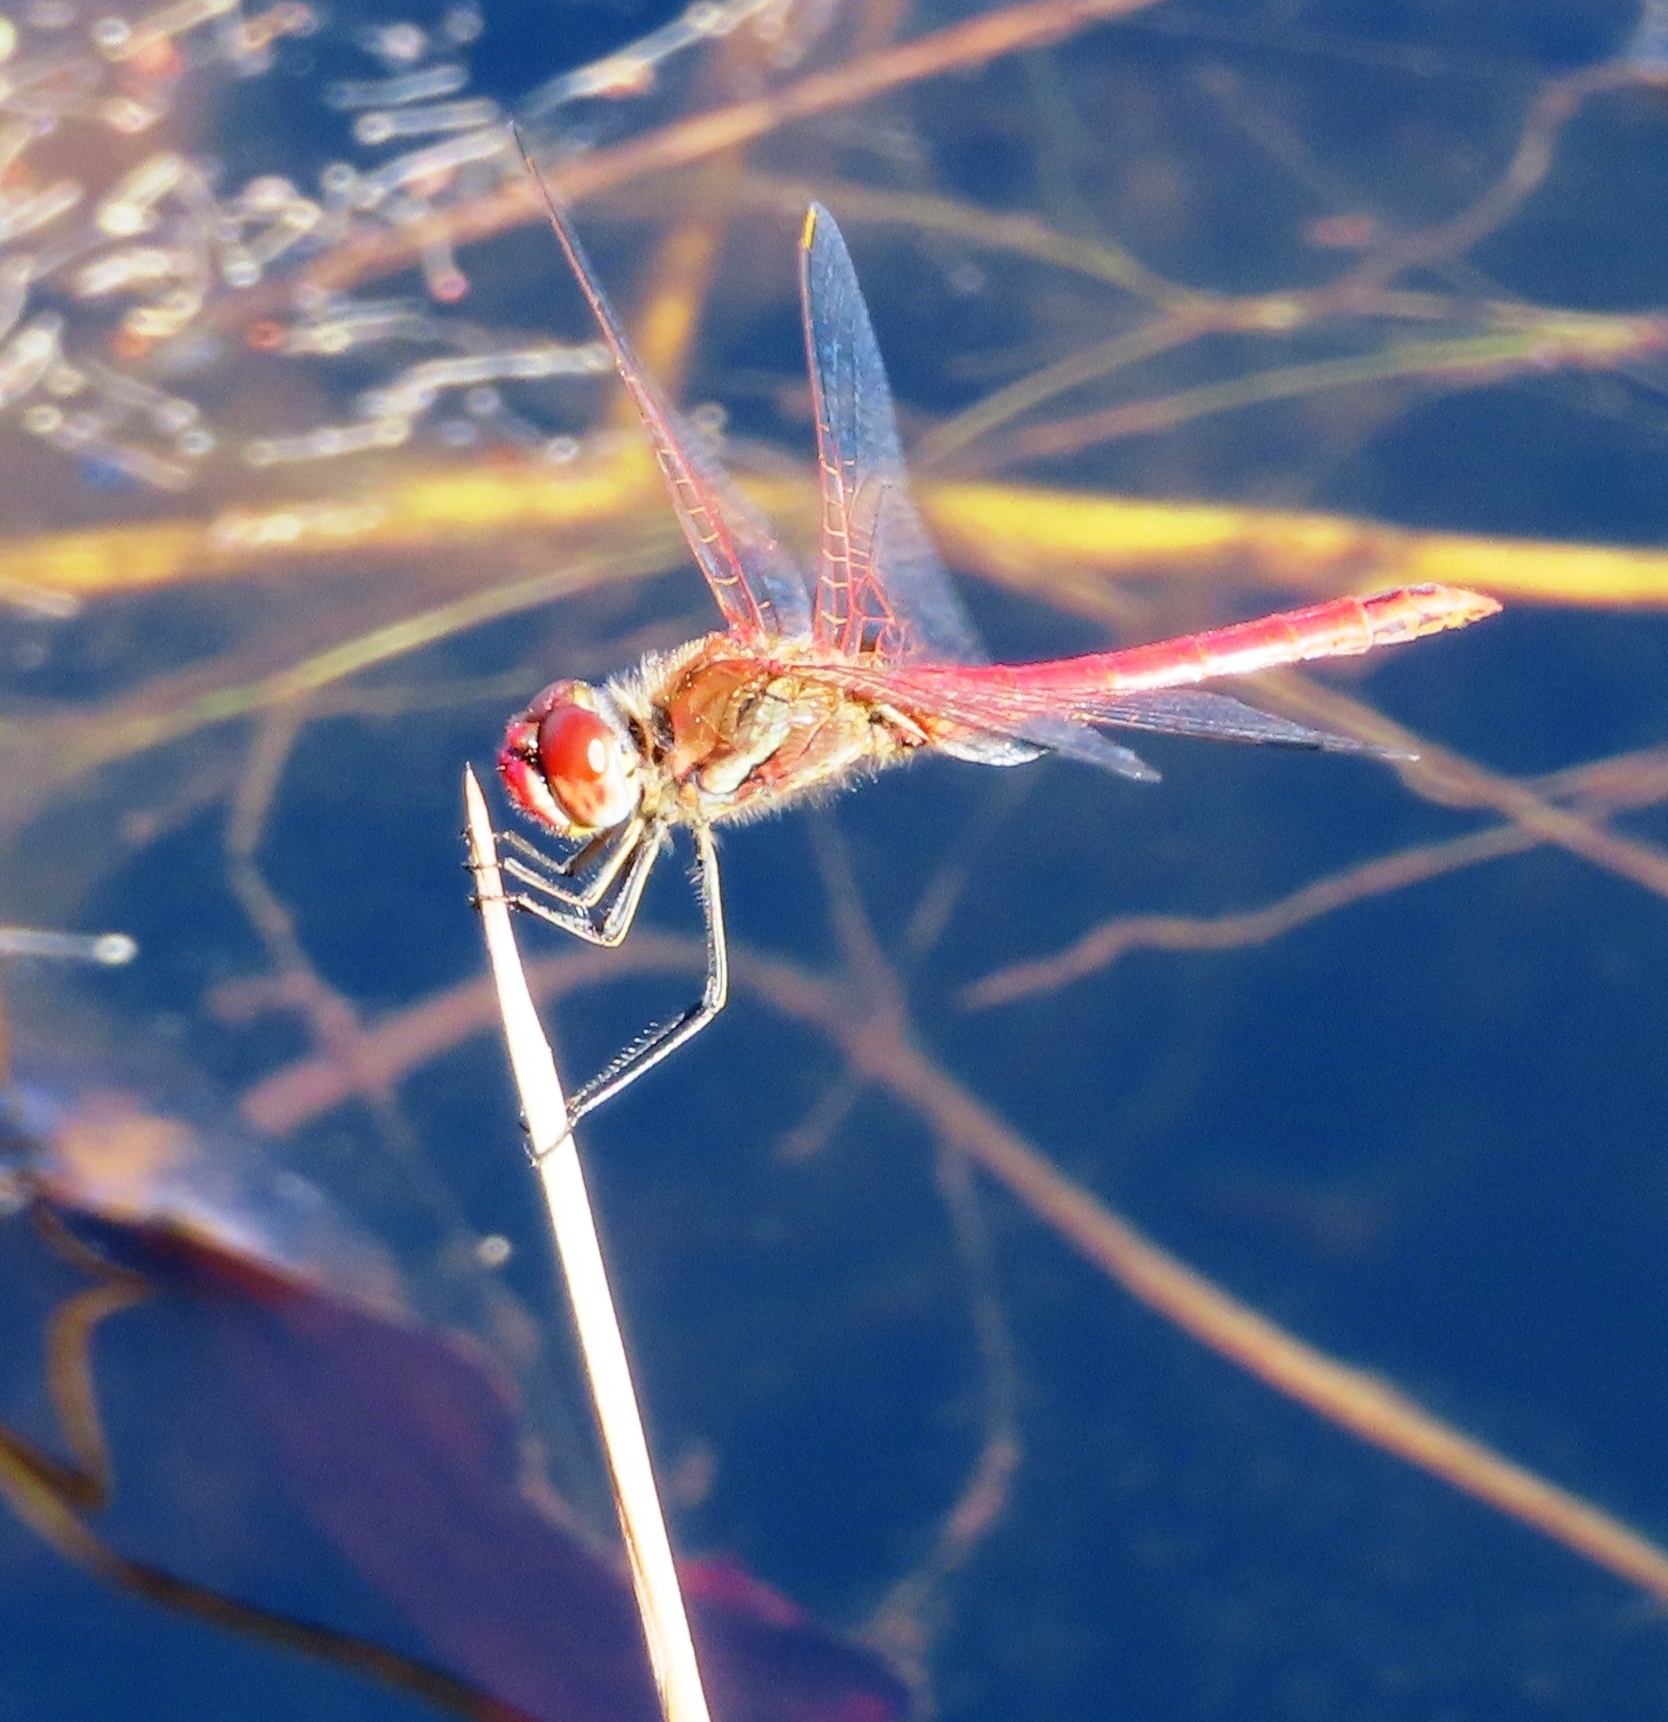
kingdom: Animalia
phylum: Arthropoda
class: Insecta
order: Odonata
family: Libellulidae
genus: Sympetrum
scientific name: Sympetrum fonscolombii
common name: Red-veined darter
